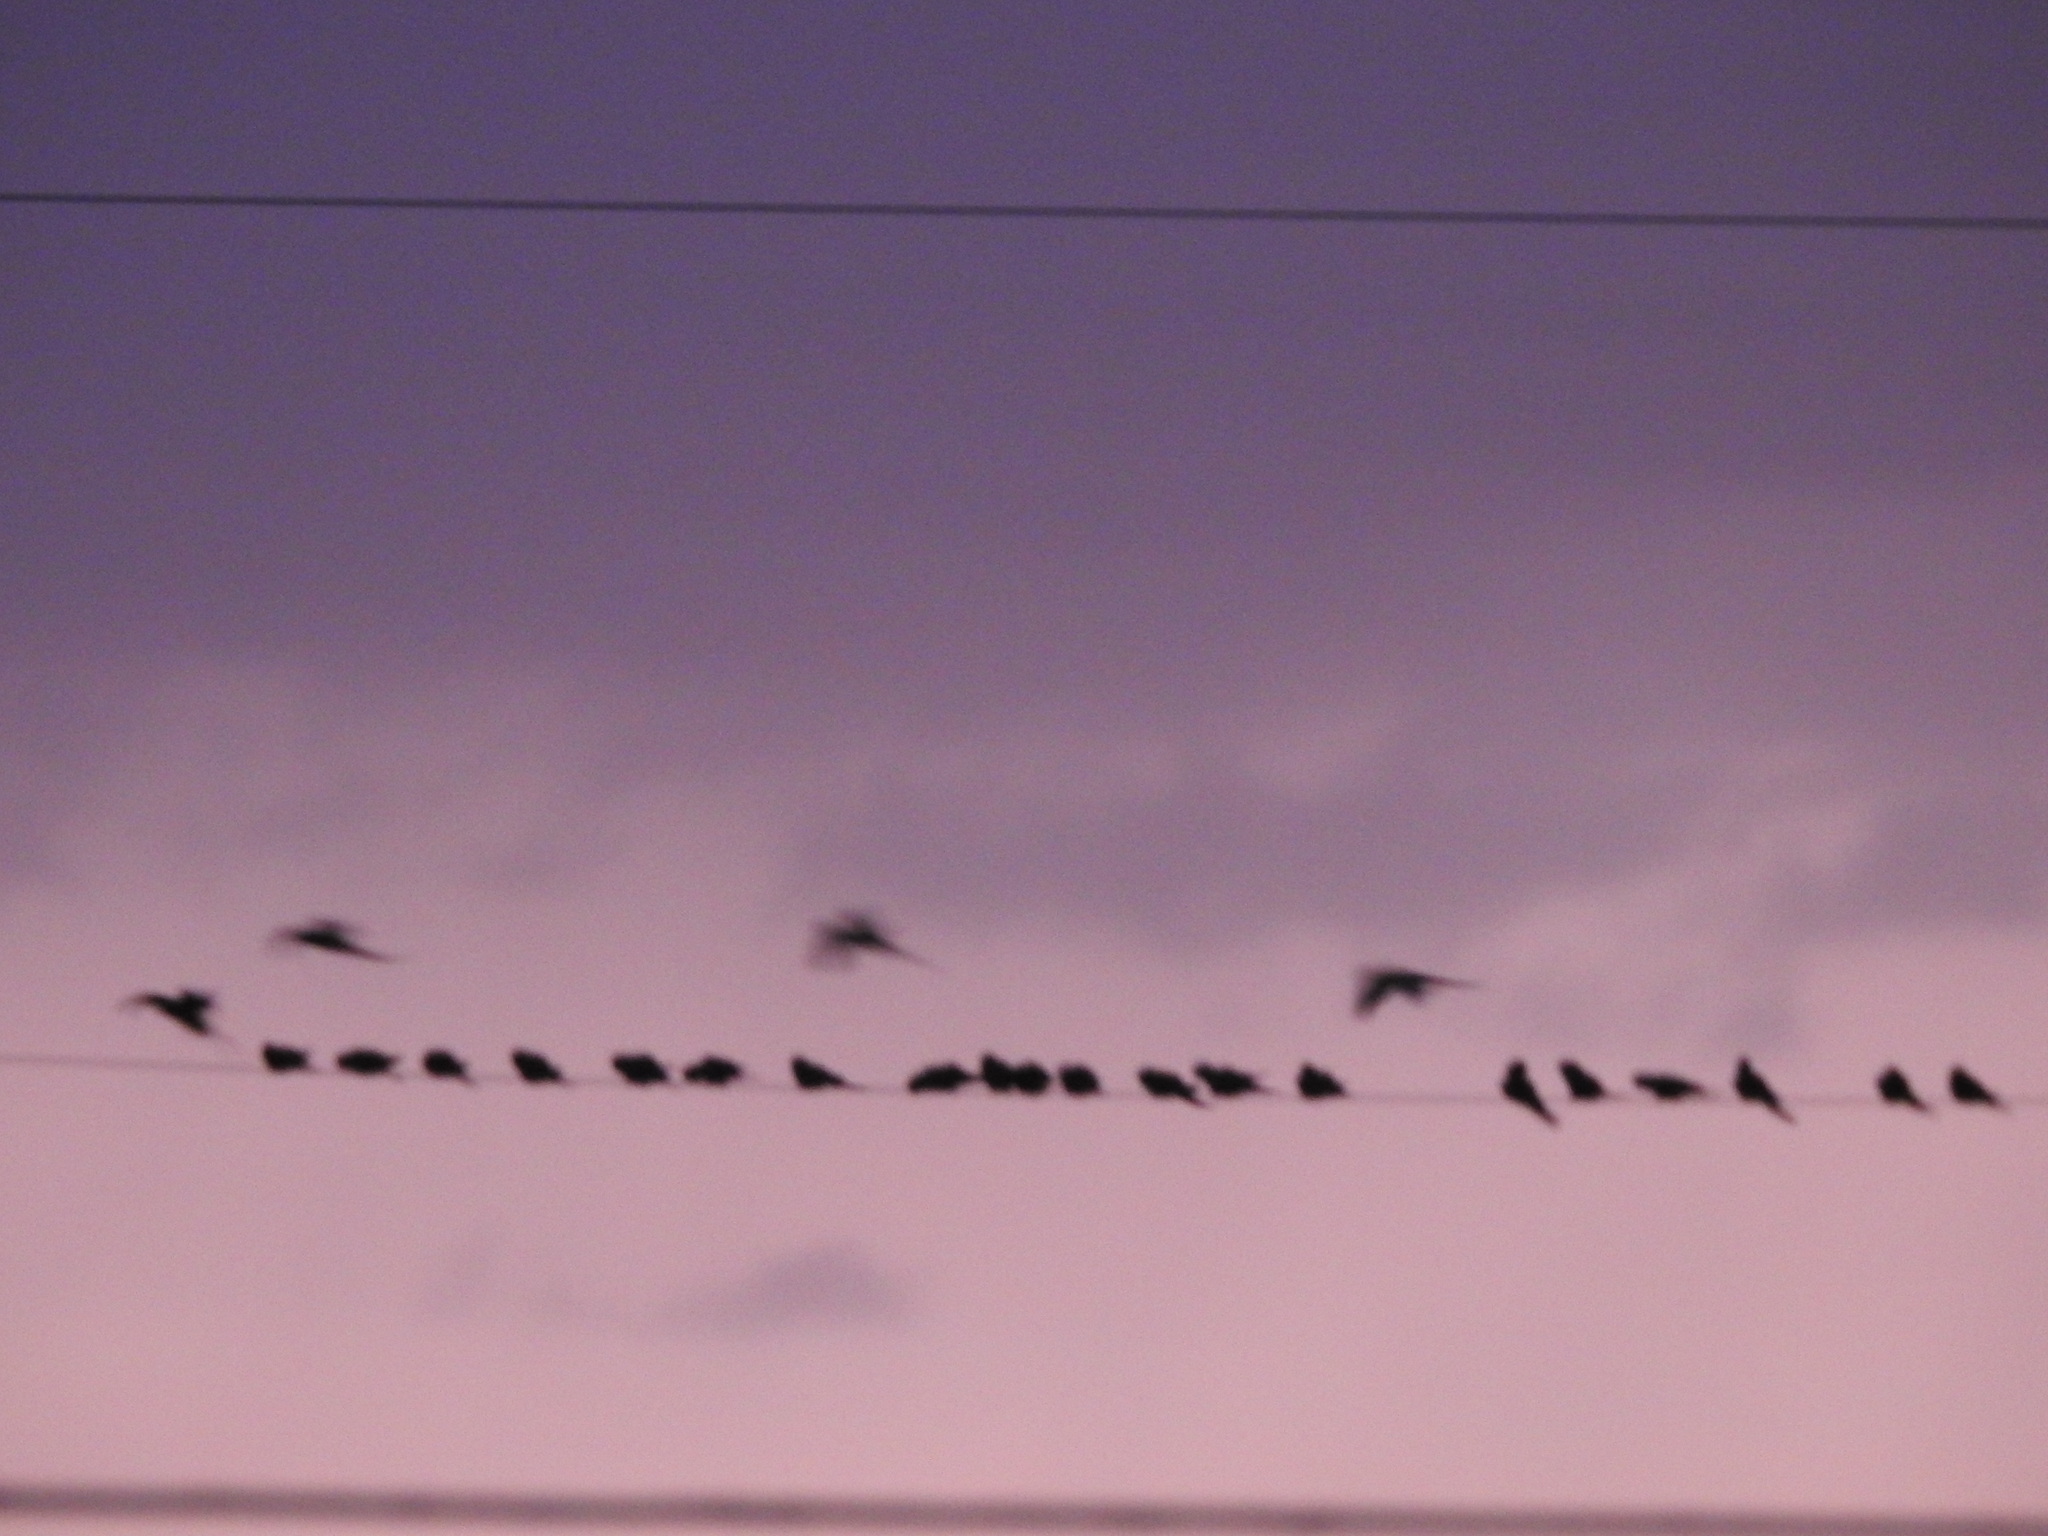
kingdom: Animalia
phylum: Chordata
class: Aves
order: Psittaciformes
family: Psittacidae
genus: Cyanoliseus
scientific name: Cyanoliseus patagonus
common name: Burrowing parrot
